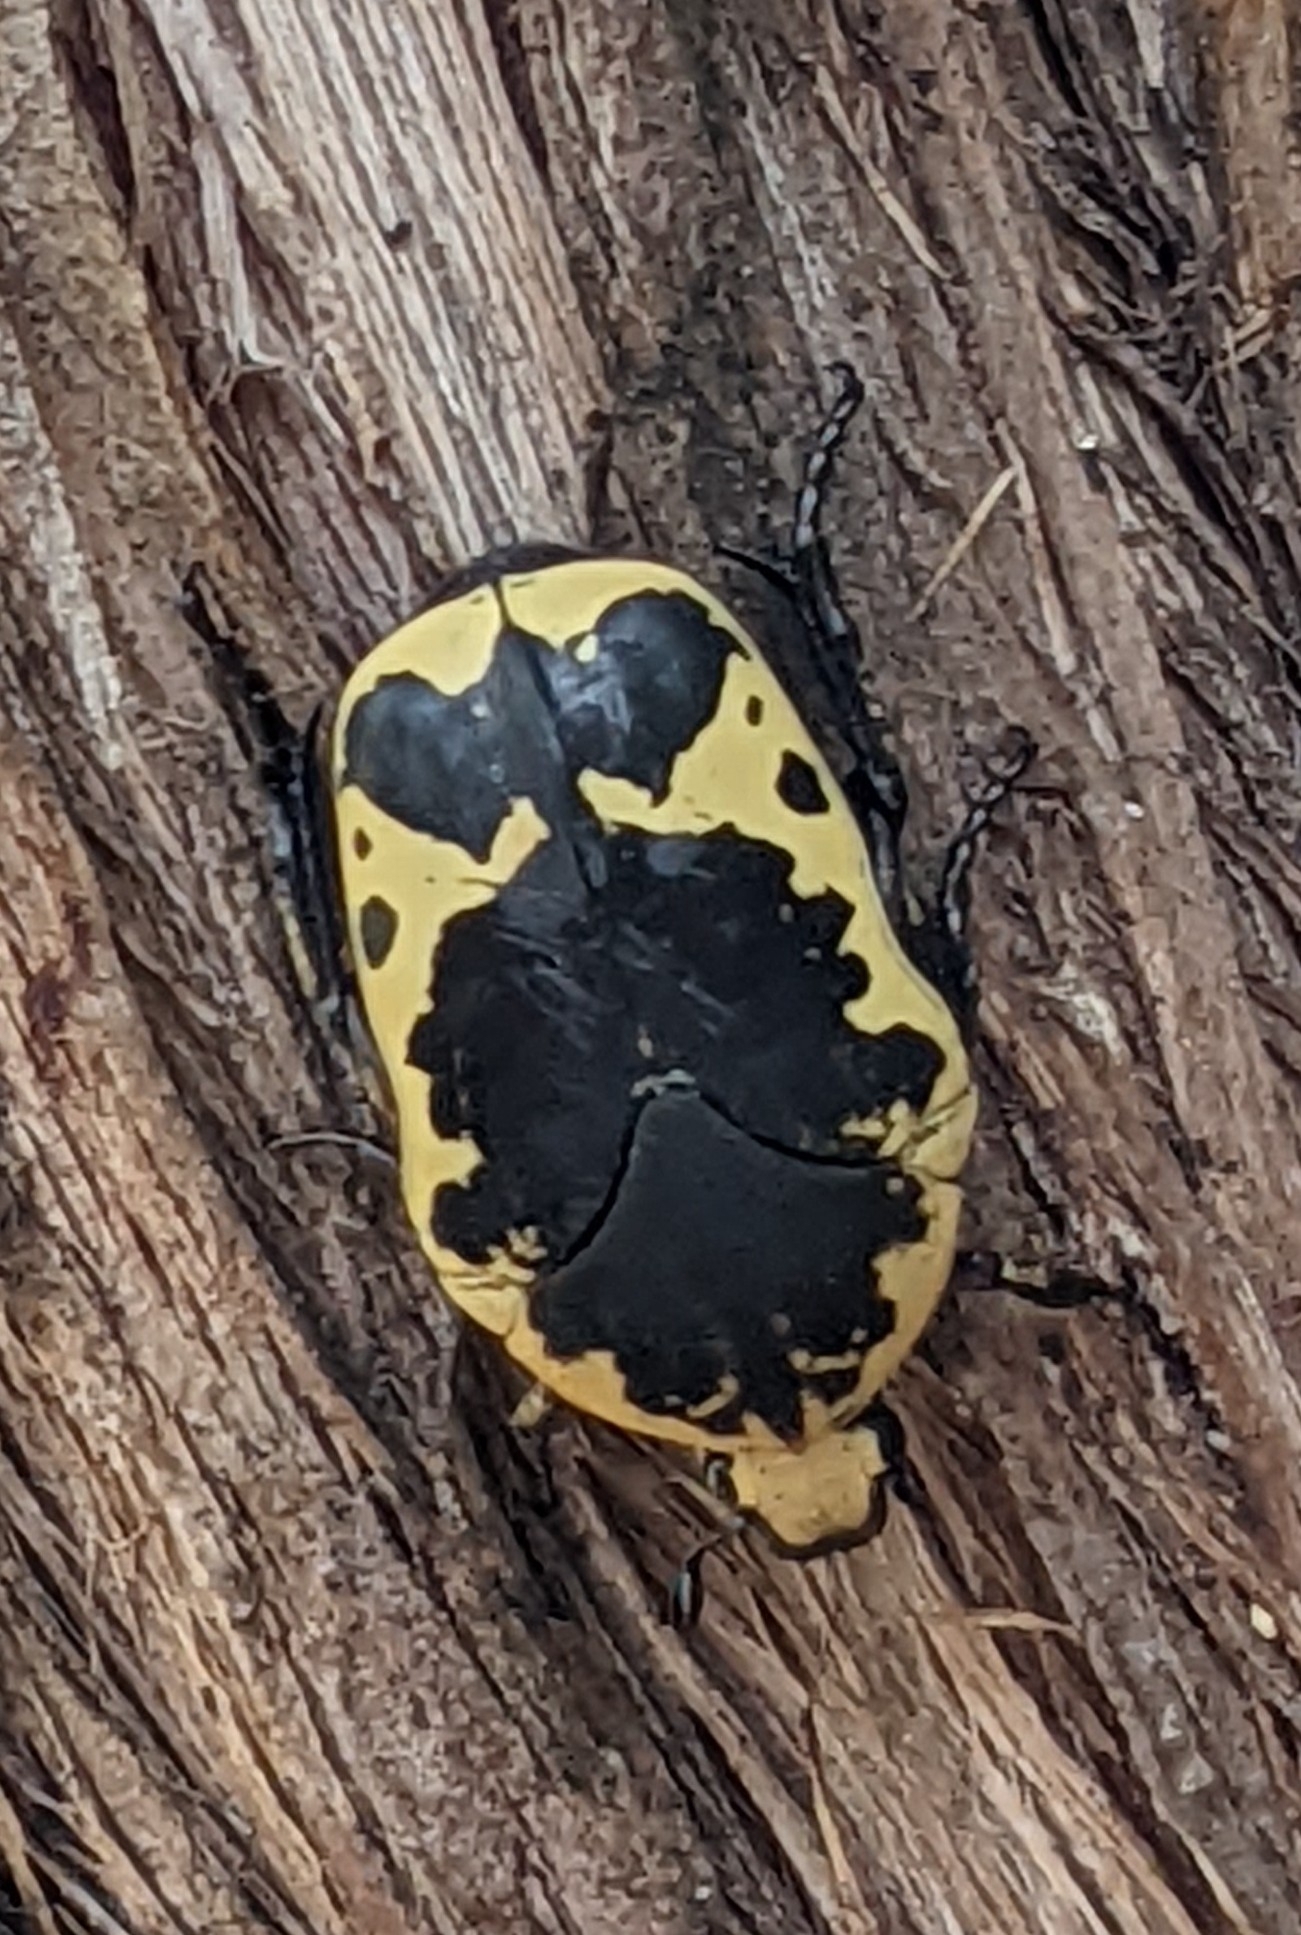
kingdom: Animalia
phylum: Arthropoda
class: Insecta
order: Coleoptera
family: Scarabaeidae
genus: Gymnetis
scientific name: Gymnetis thula
